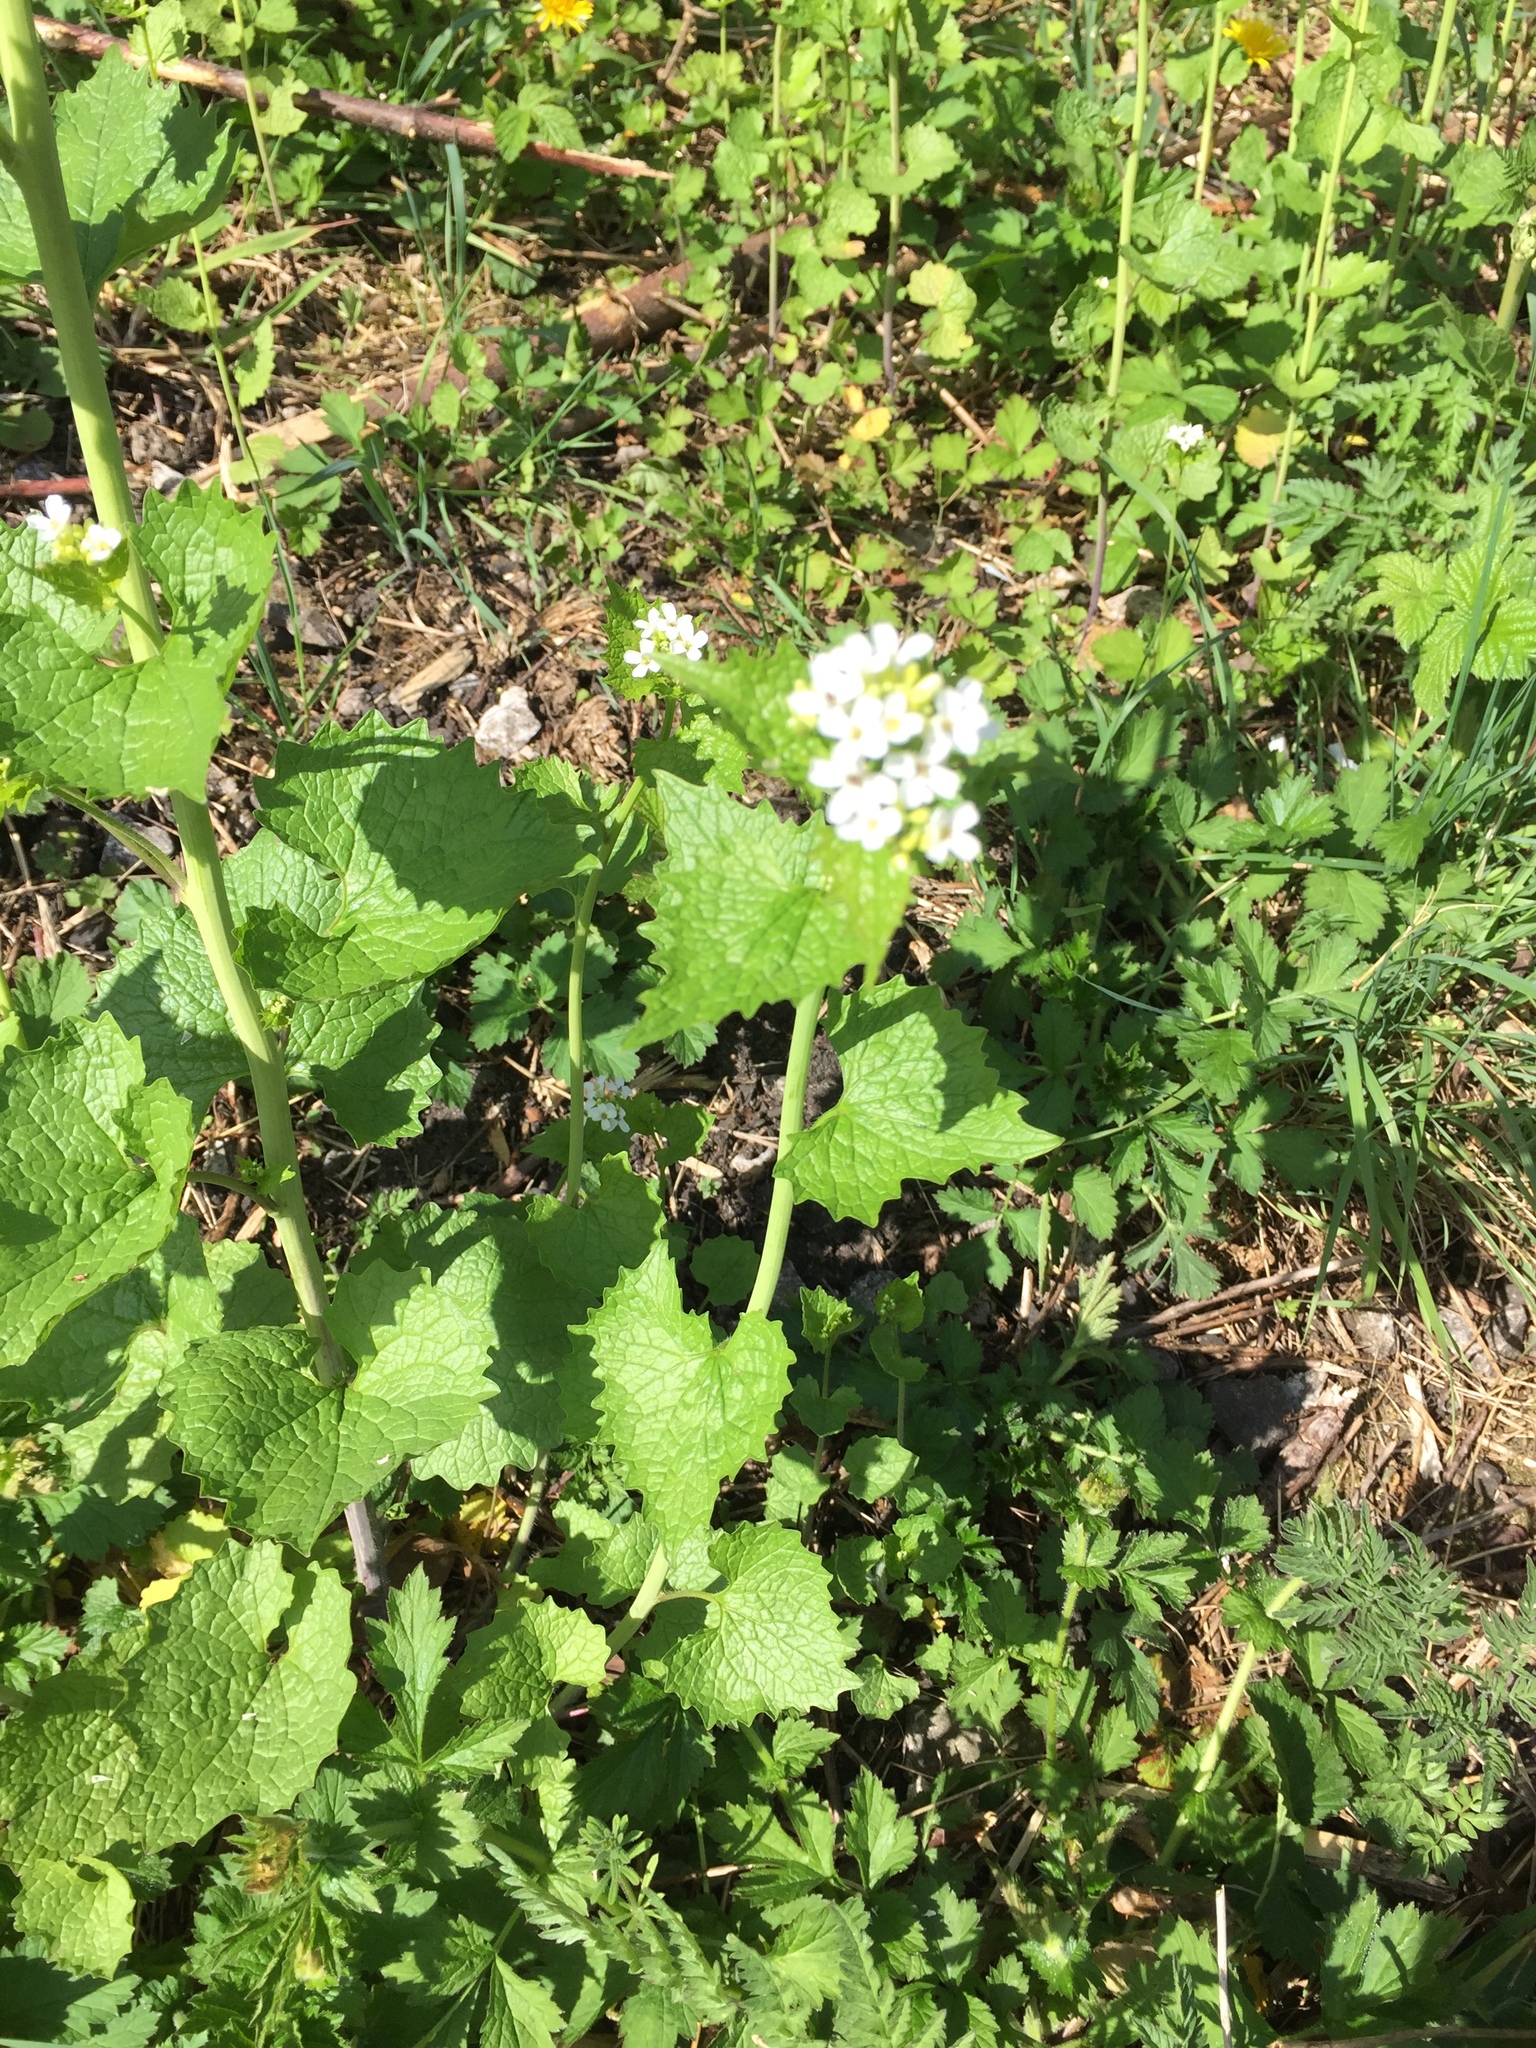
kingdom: Plantae
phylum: Tracheophyta
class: Magnoliopsida
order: Brassicales
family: Brassicaceae
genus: Alliaria
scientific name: Alliaria petiolata
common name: Garlic mustard
